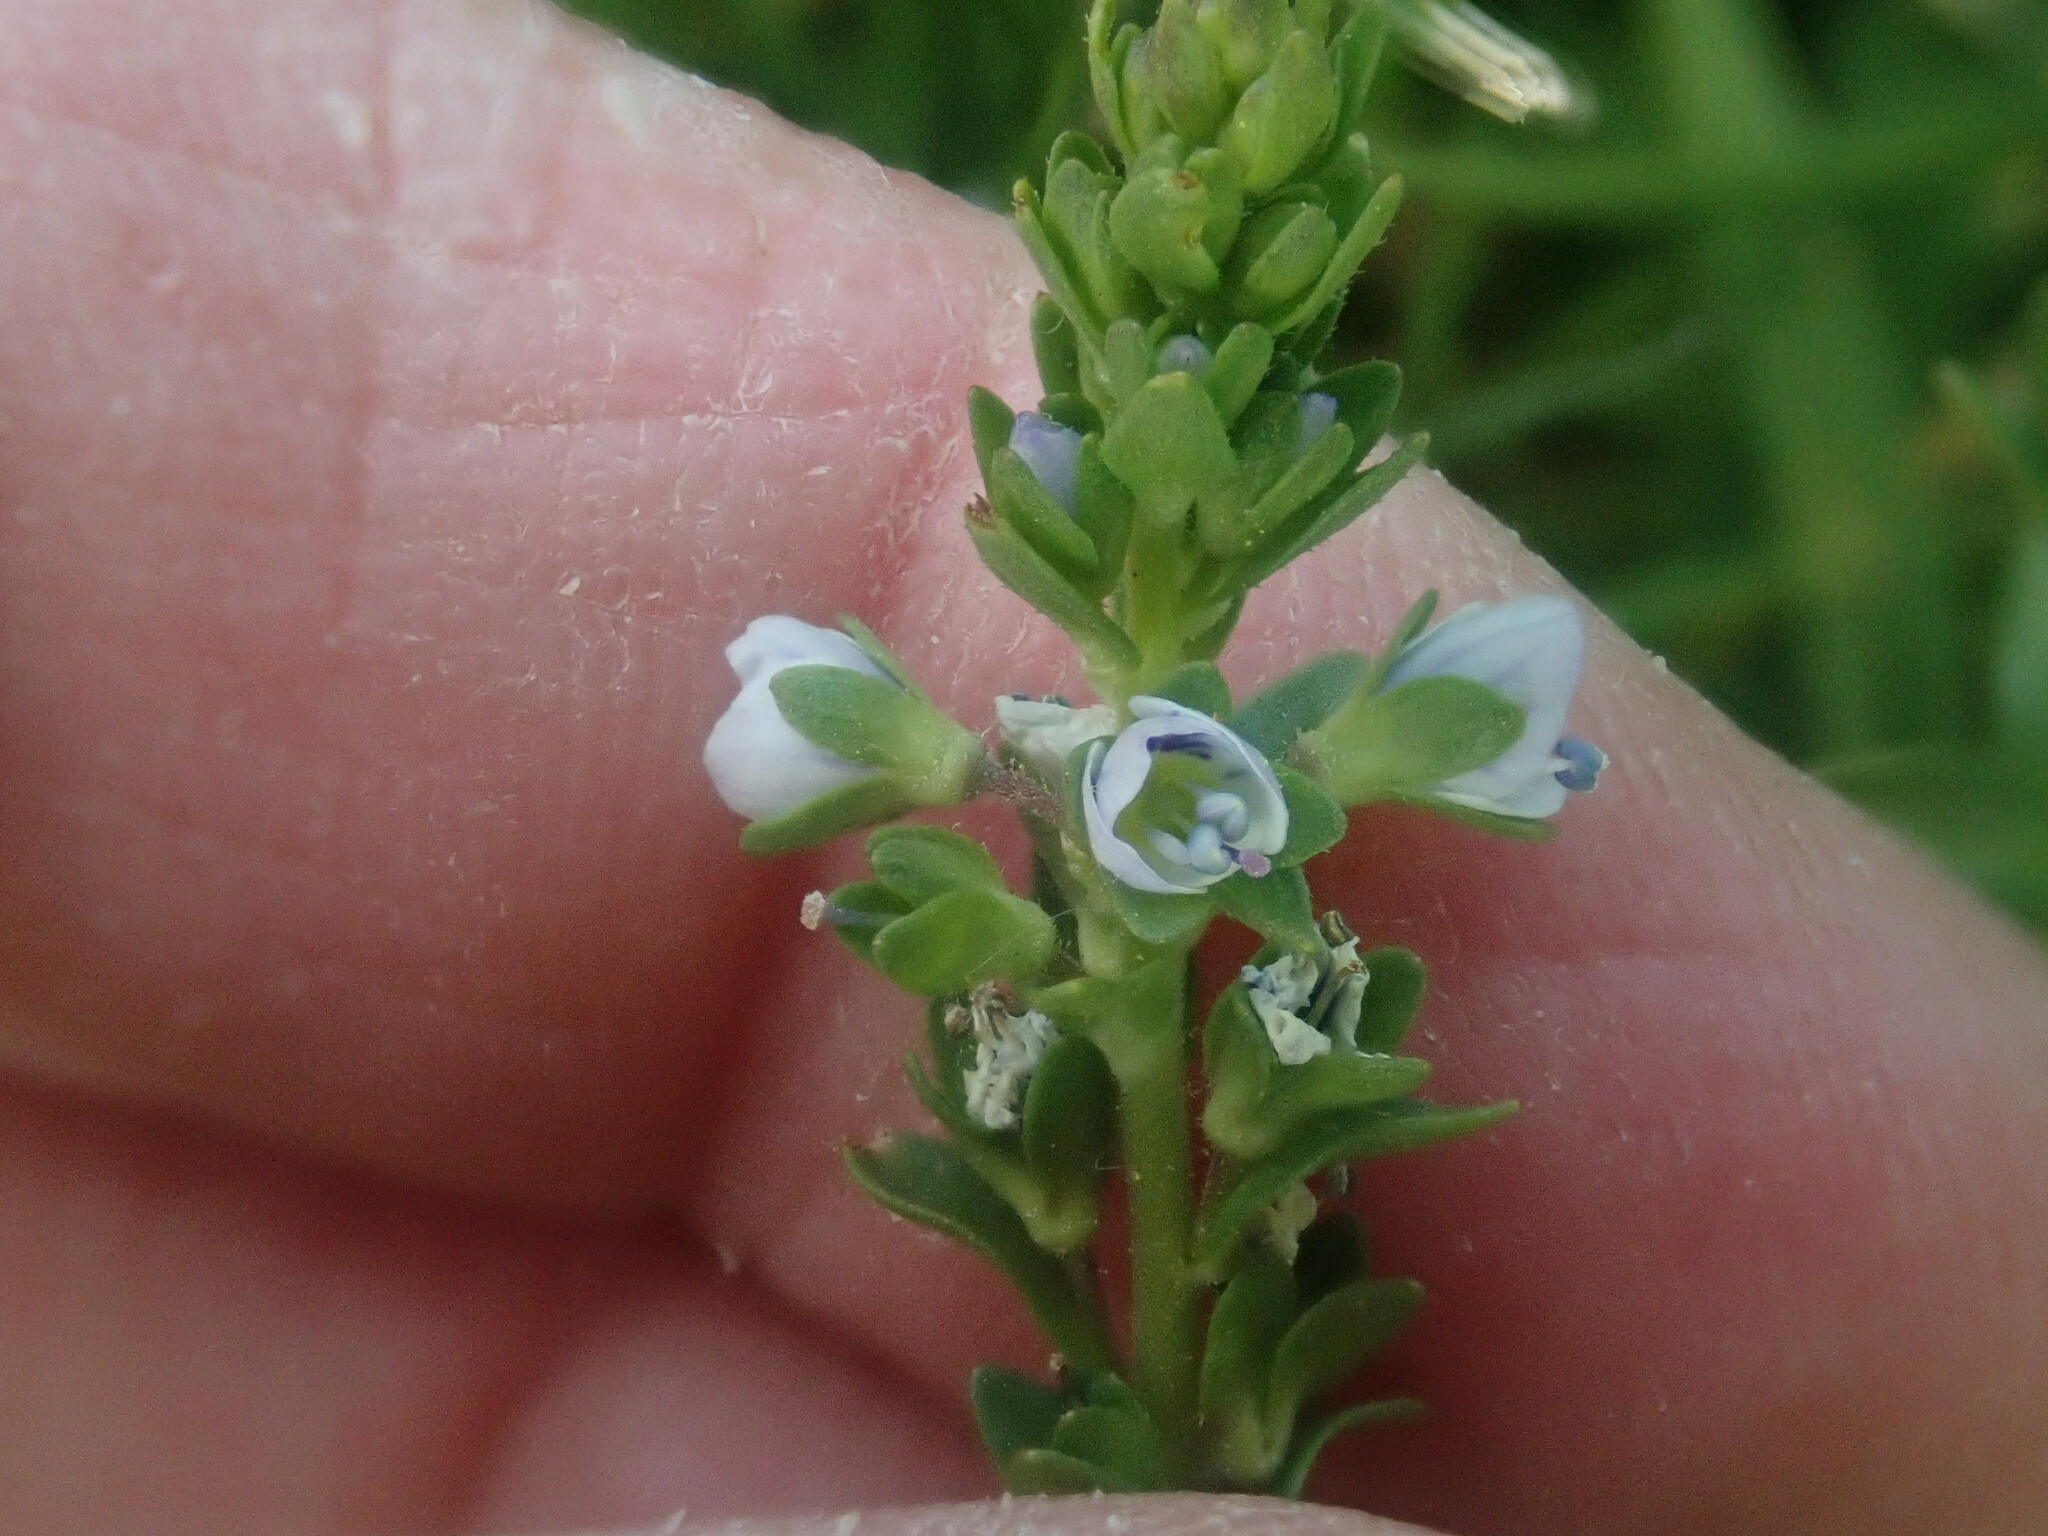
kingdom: Plantae
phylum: Tracheophyta
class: Magnoliopsida
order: Lamiales
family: Plantaginaceae
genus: Veronica
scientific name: Veronica serpyllifolia
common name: Thyme-leaved speedwell
